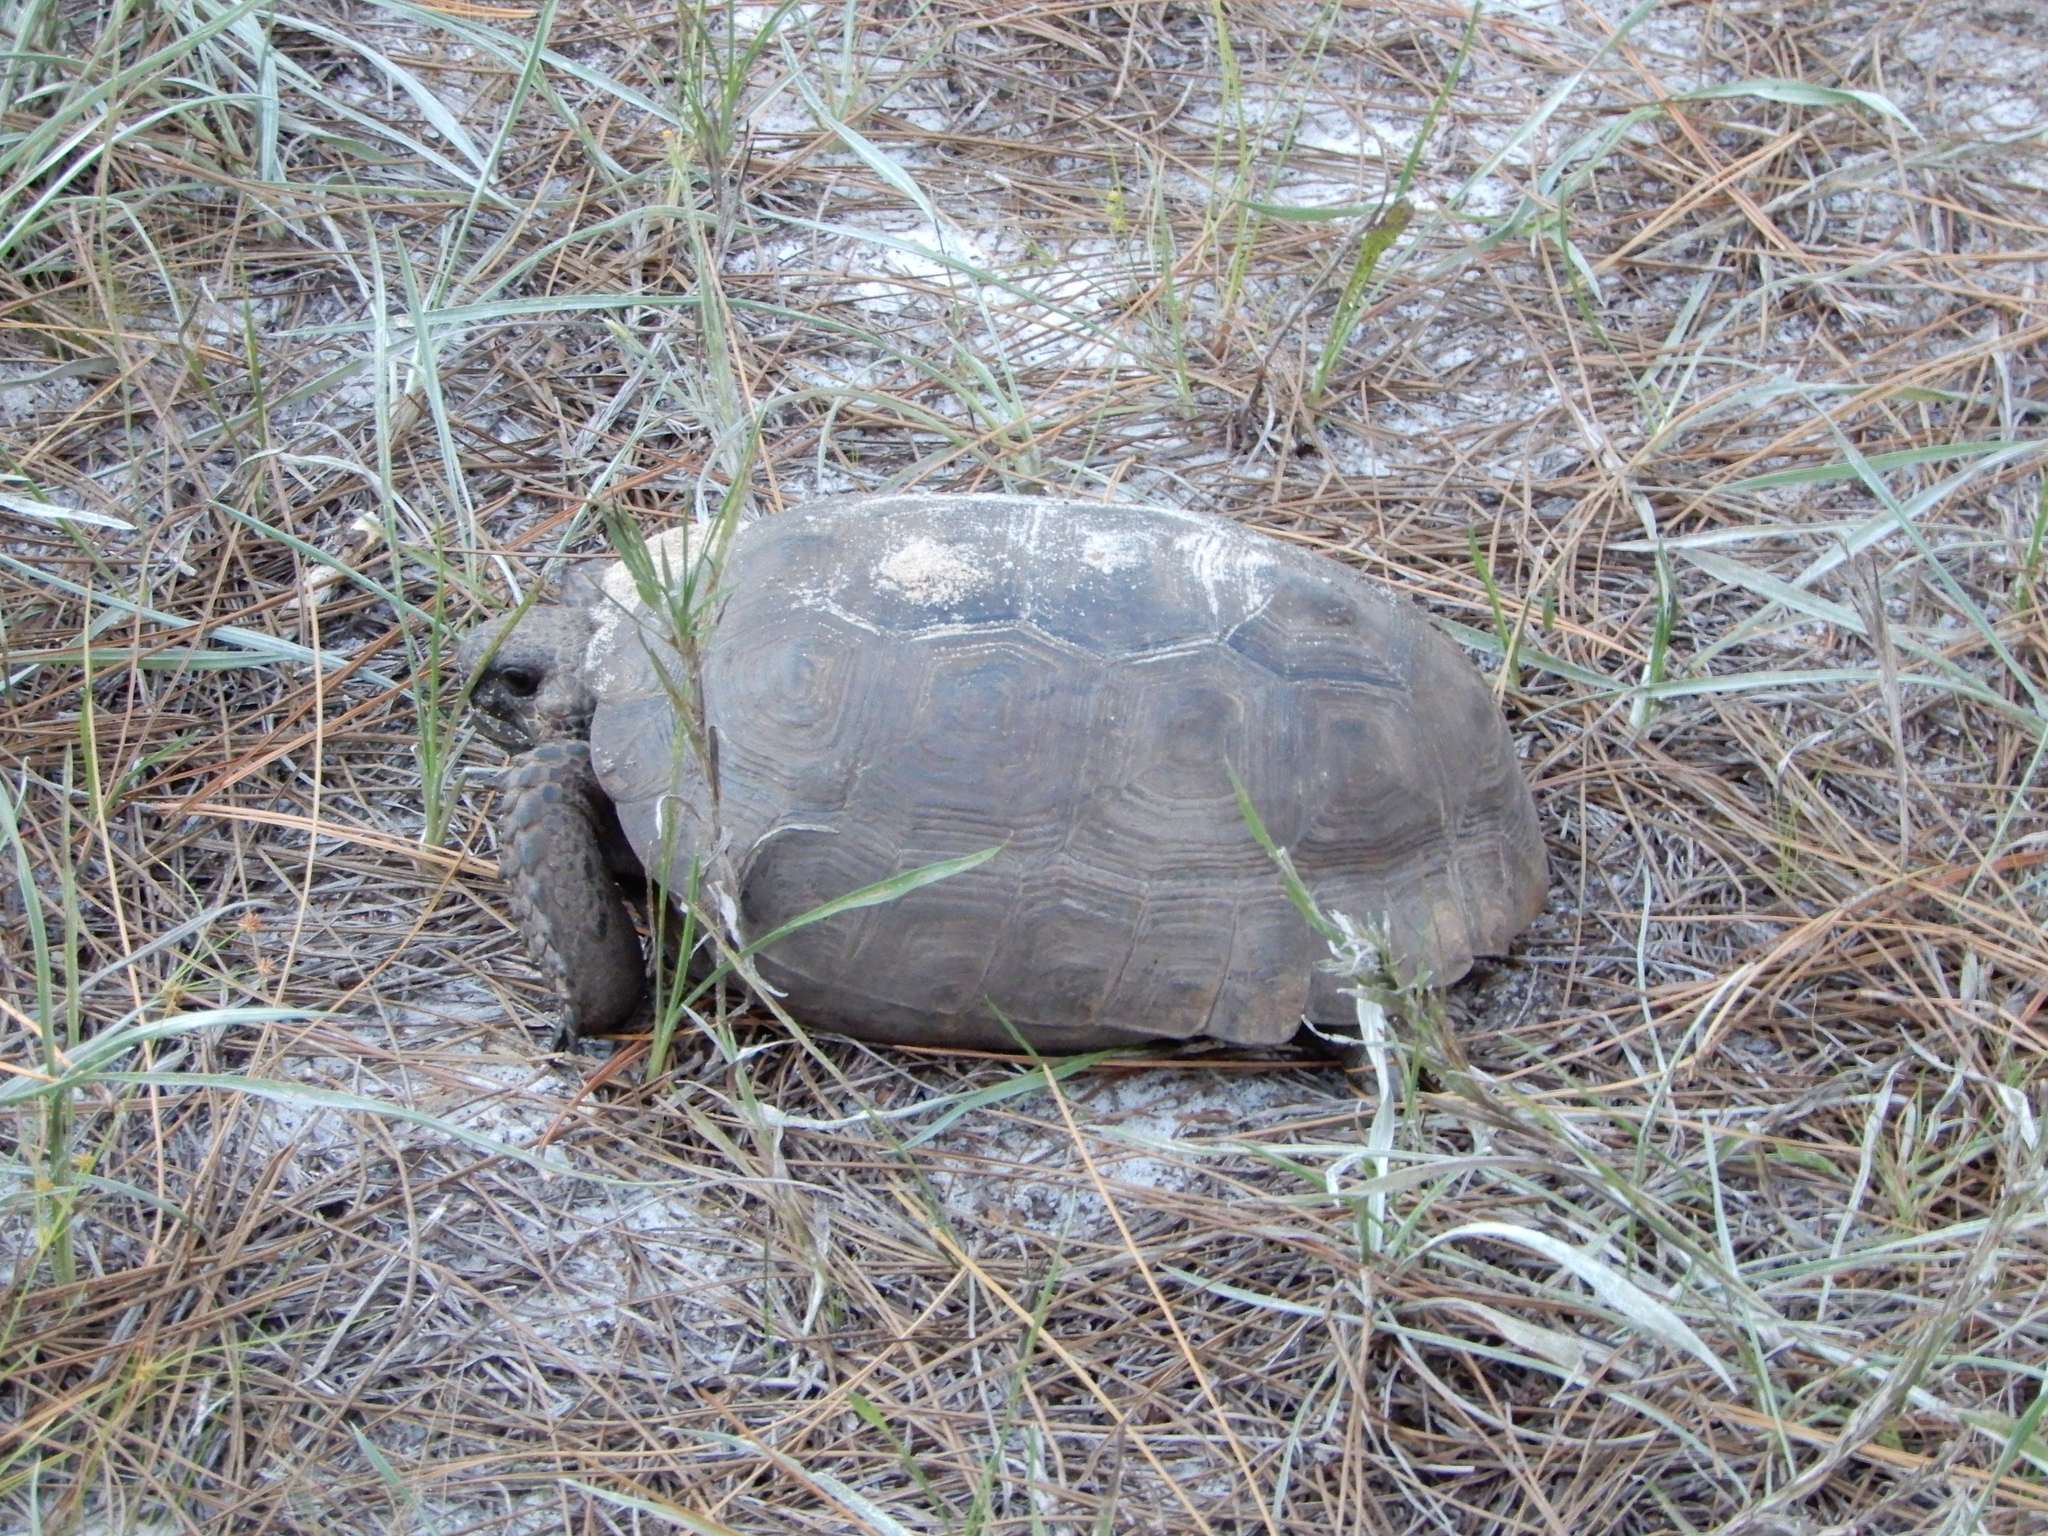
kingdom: Animalia
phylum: Chordata
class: Testudines
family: Testudinidae
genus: Gopherus
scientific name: Gopherus polyphemus
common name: Florida gopher tortoise
